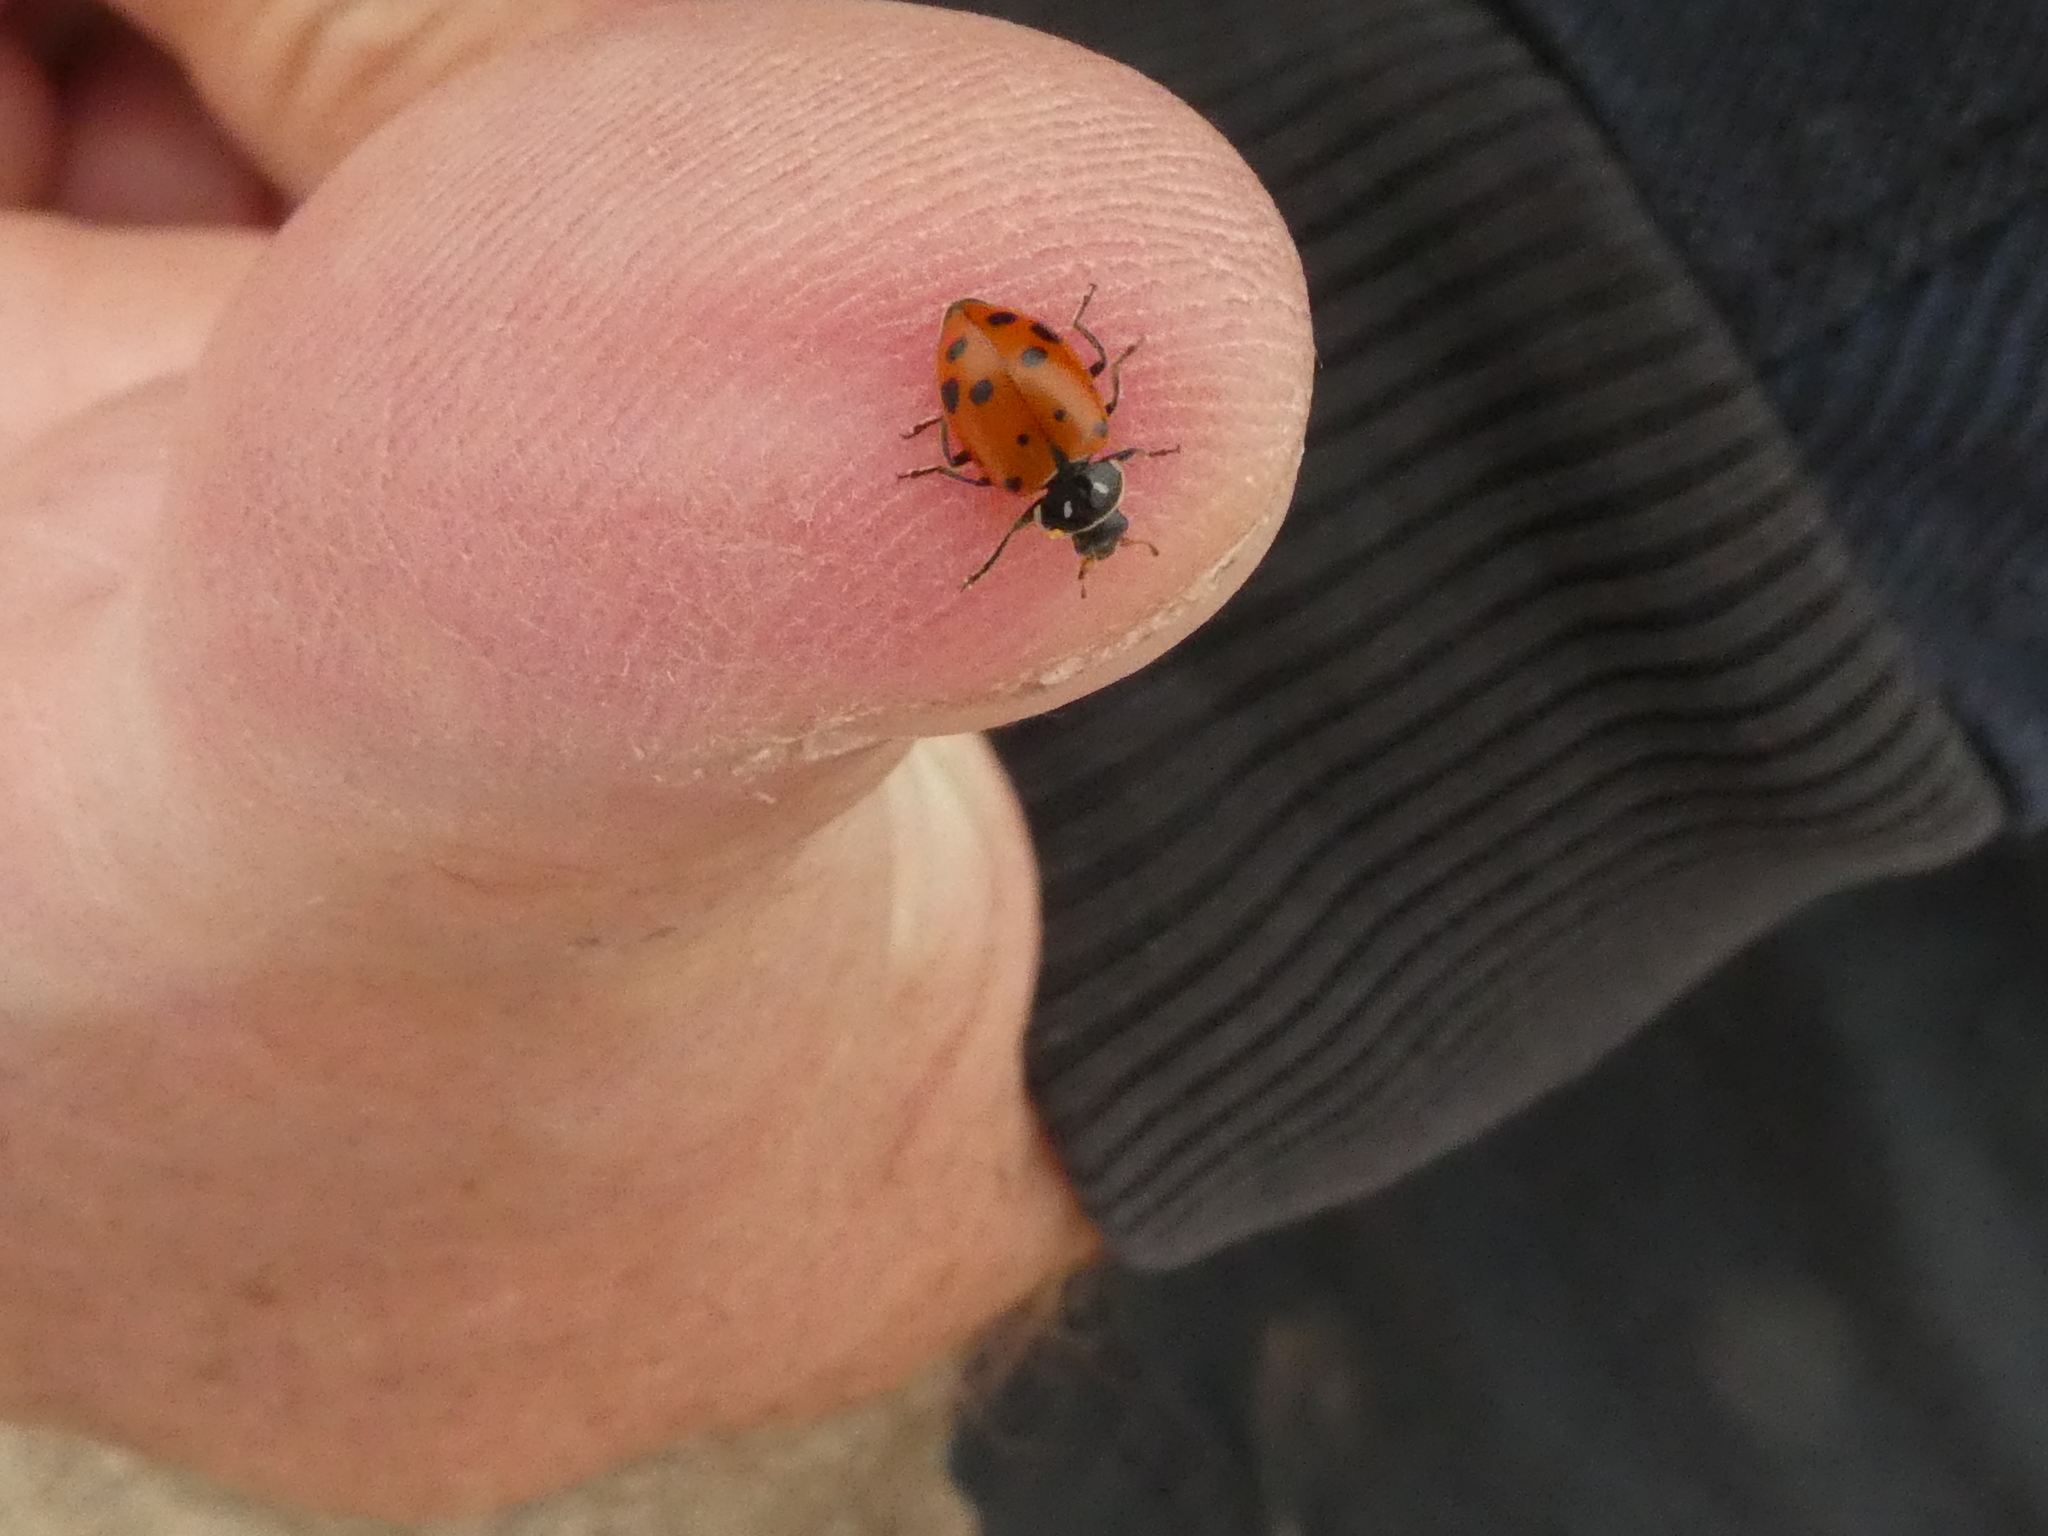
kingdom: Animalia
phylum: Arthropoda
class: Insecta
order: Coleoptera
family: Coccinellidae
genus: Hippodamia
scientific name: Hippodamia convergens
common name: Convergent lady beetle
